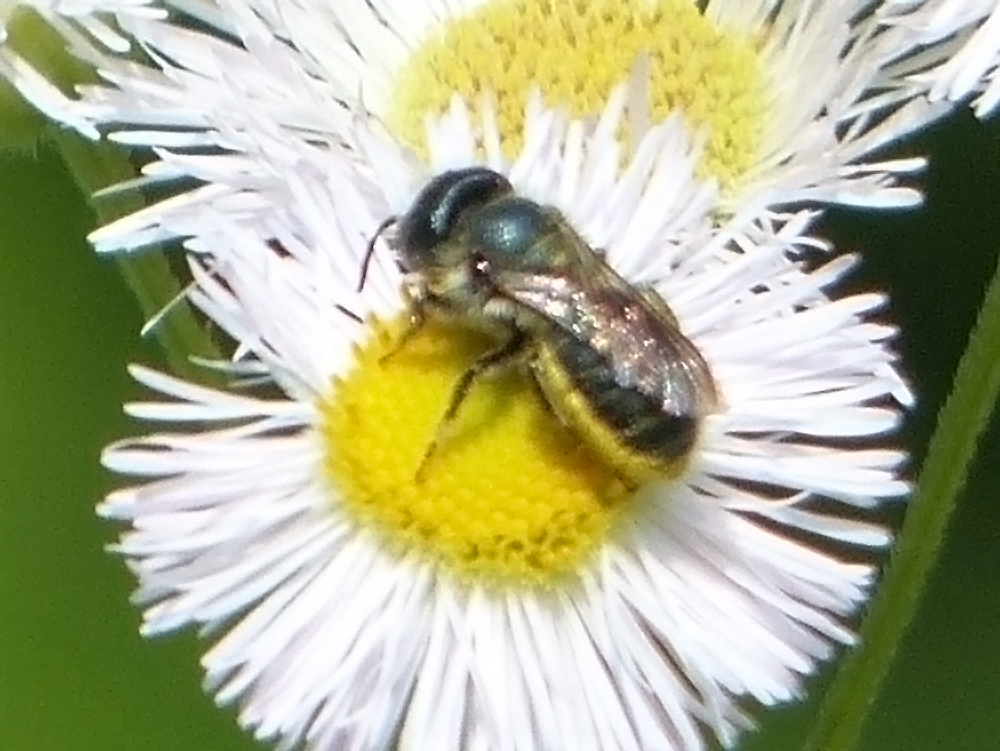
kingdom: Animalia
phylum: Arthropoda
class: Insecta
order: Hymenoptera
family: Megachilidae
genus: Osmia
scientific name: Osmia georgica
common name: Georgia mason
